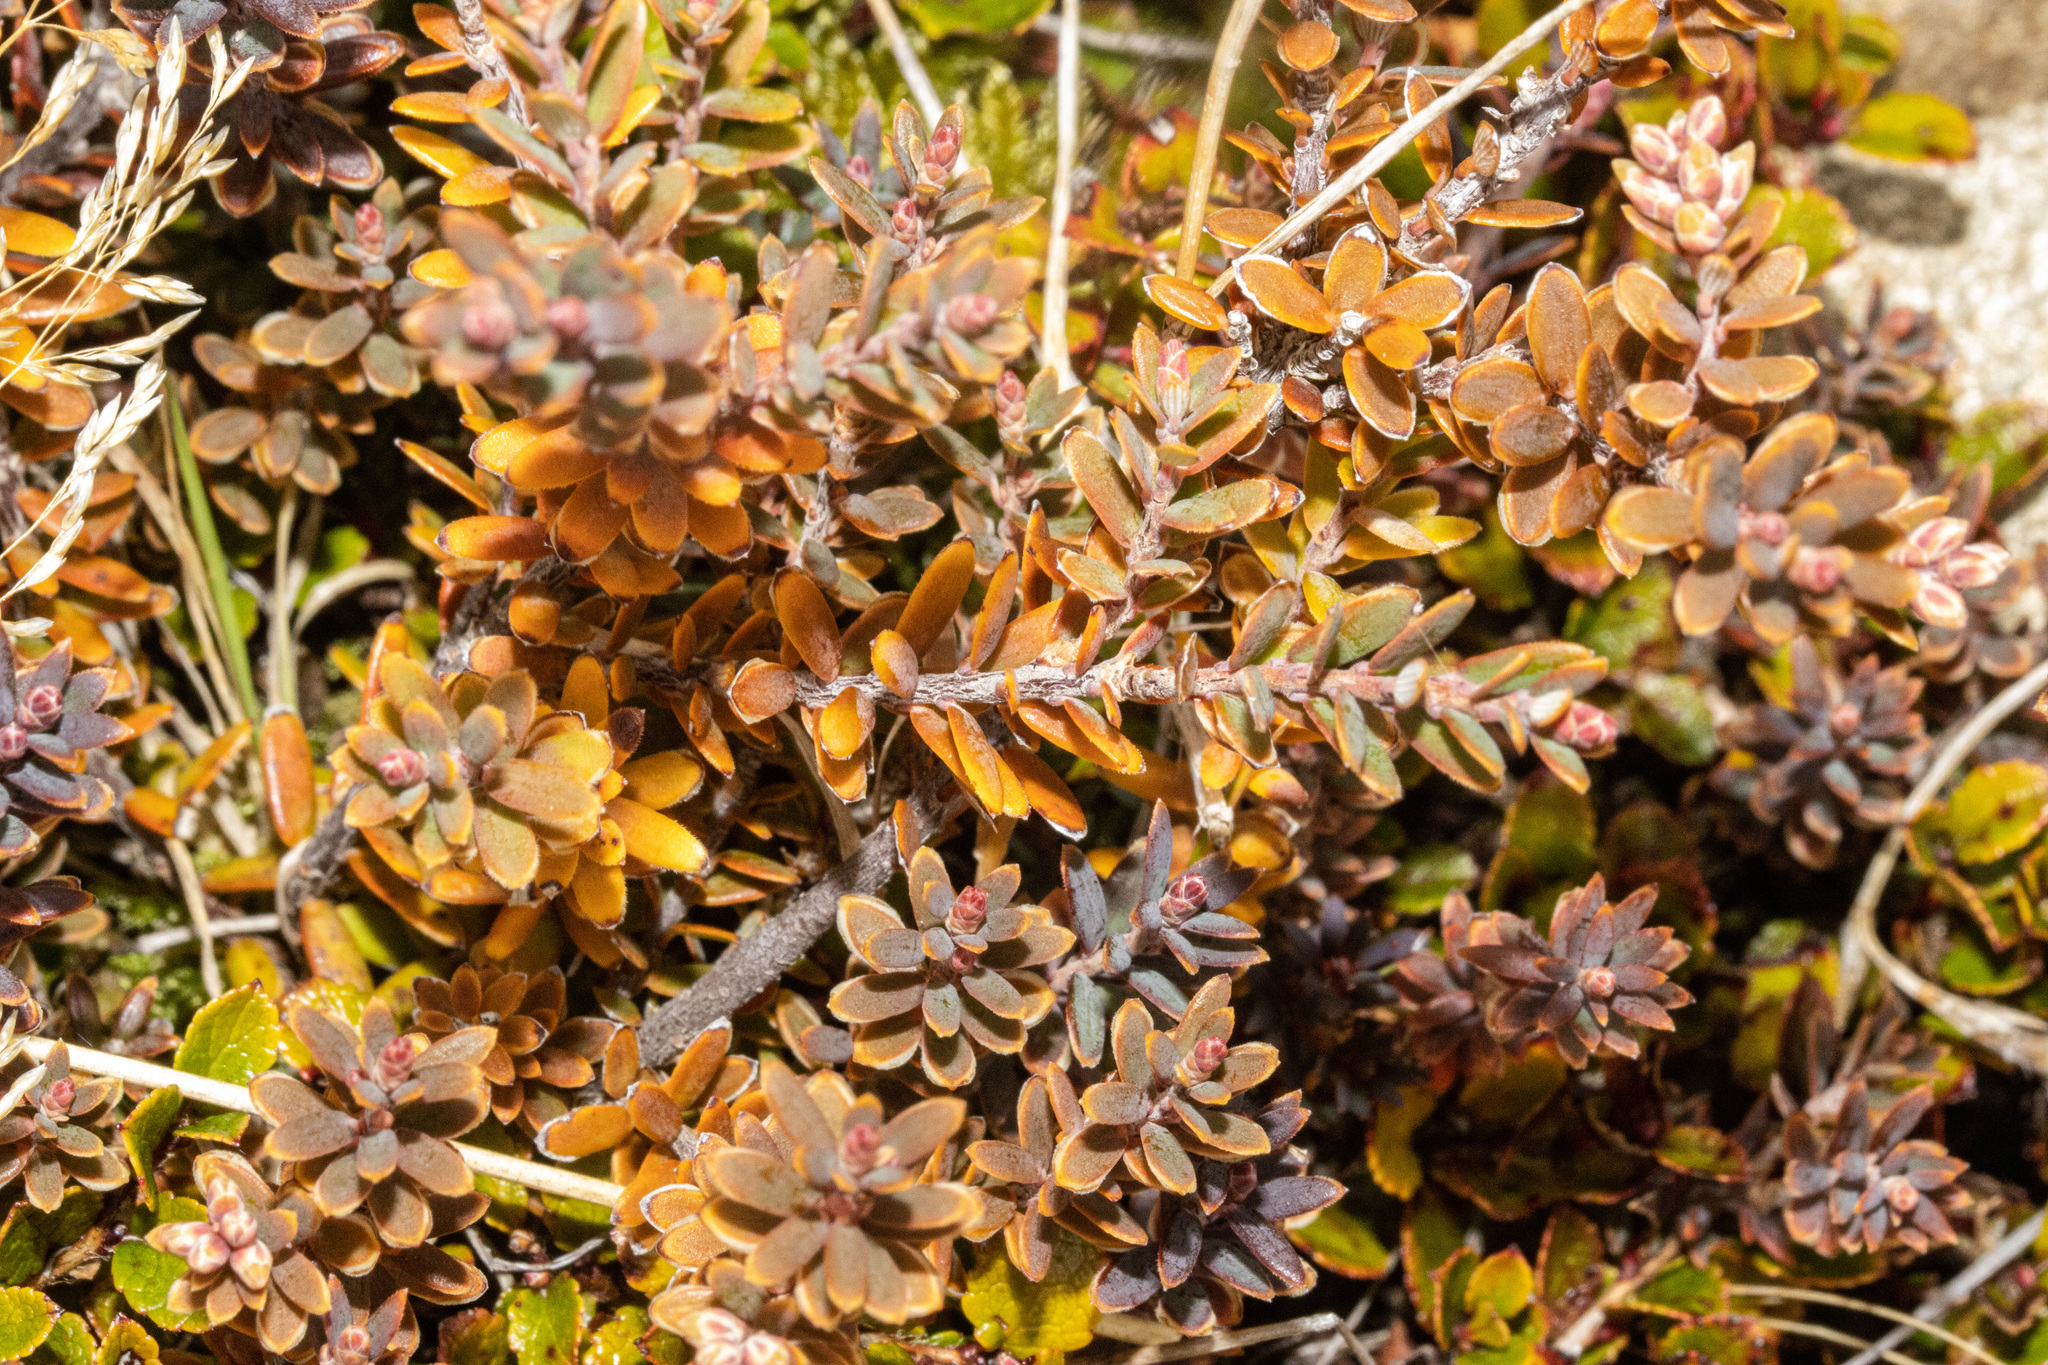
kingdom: Plantae
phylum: Tracheophyta
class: Magnoliopsida
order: Ericales
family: Ericaceae
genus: Acrothamnus
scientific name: Acrothamnus colensoi
